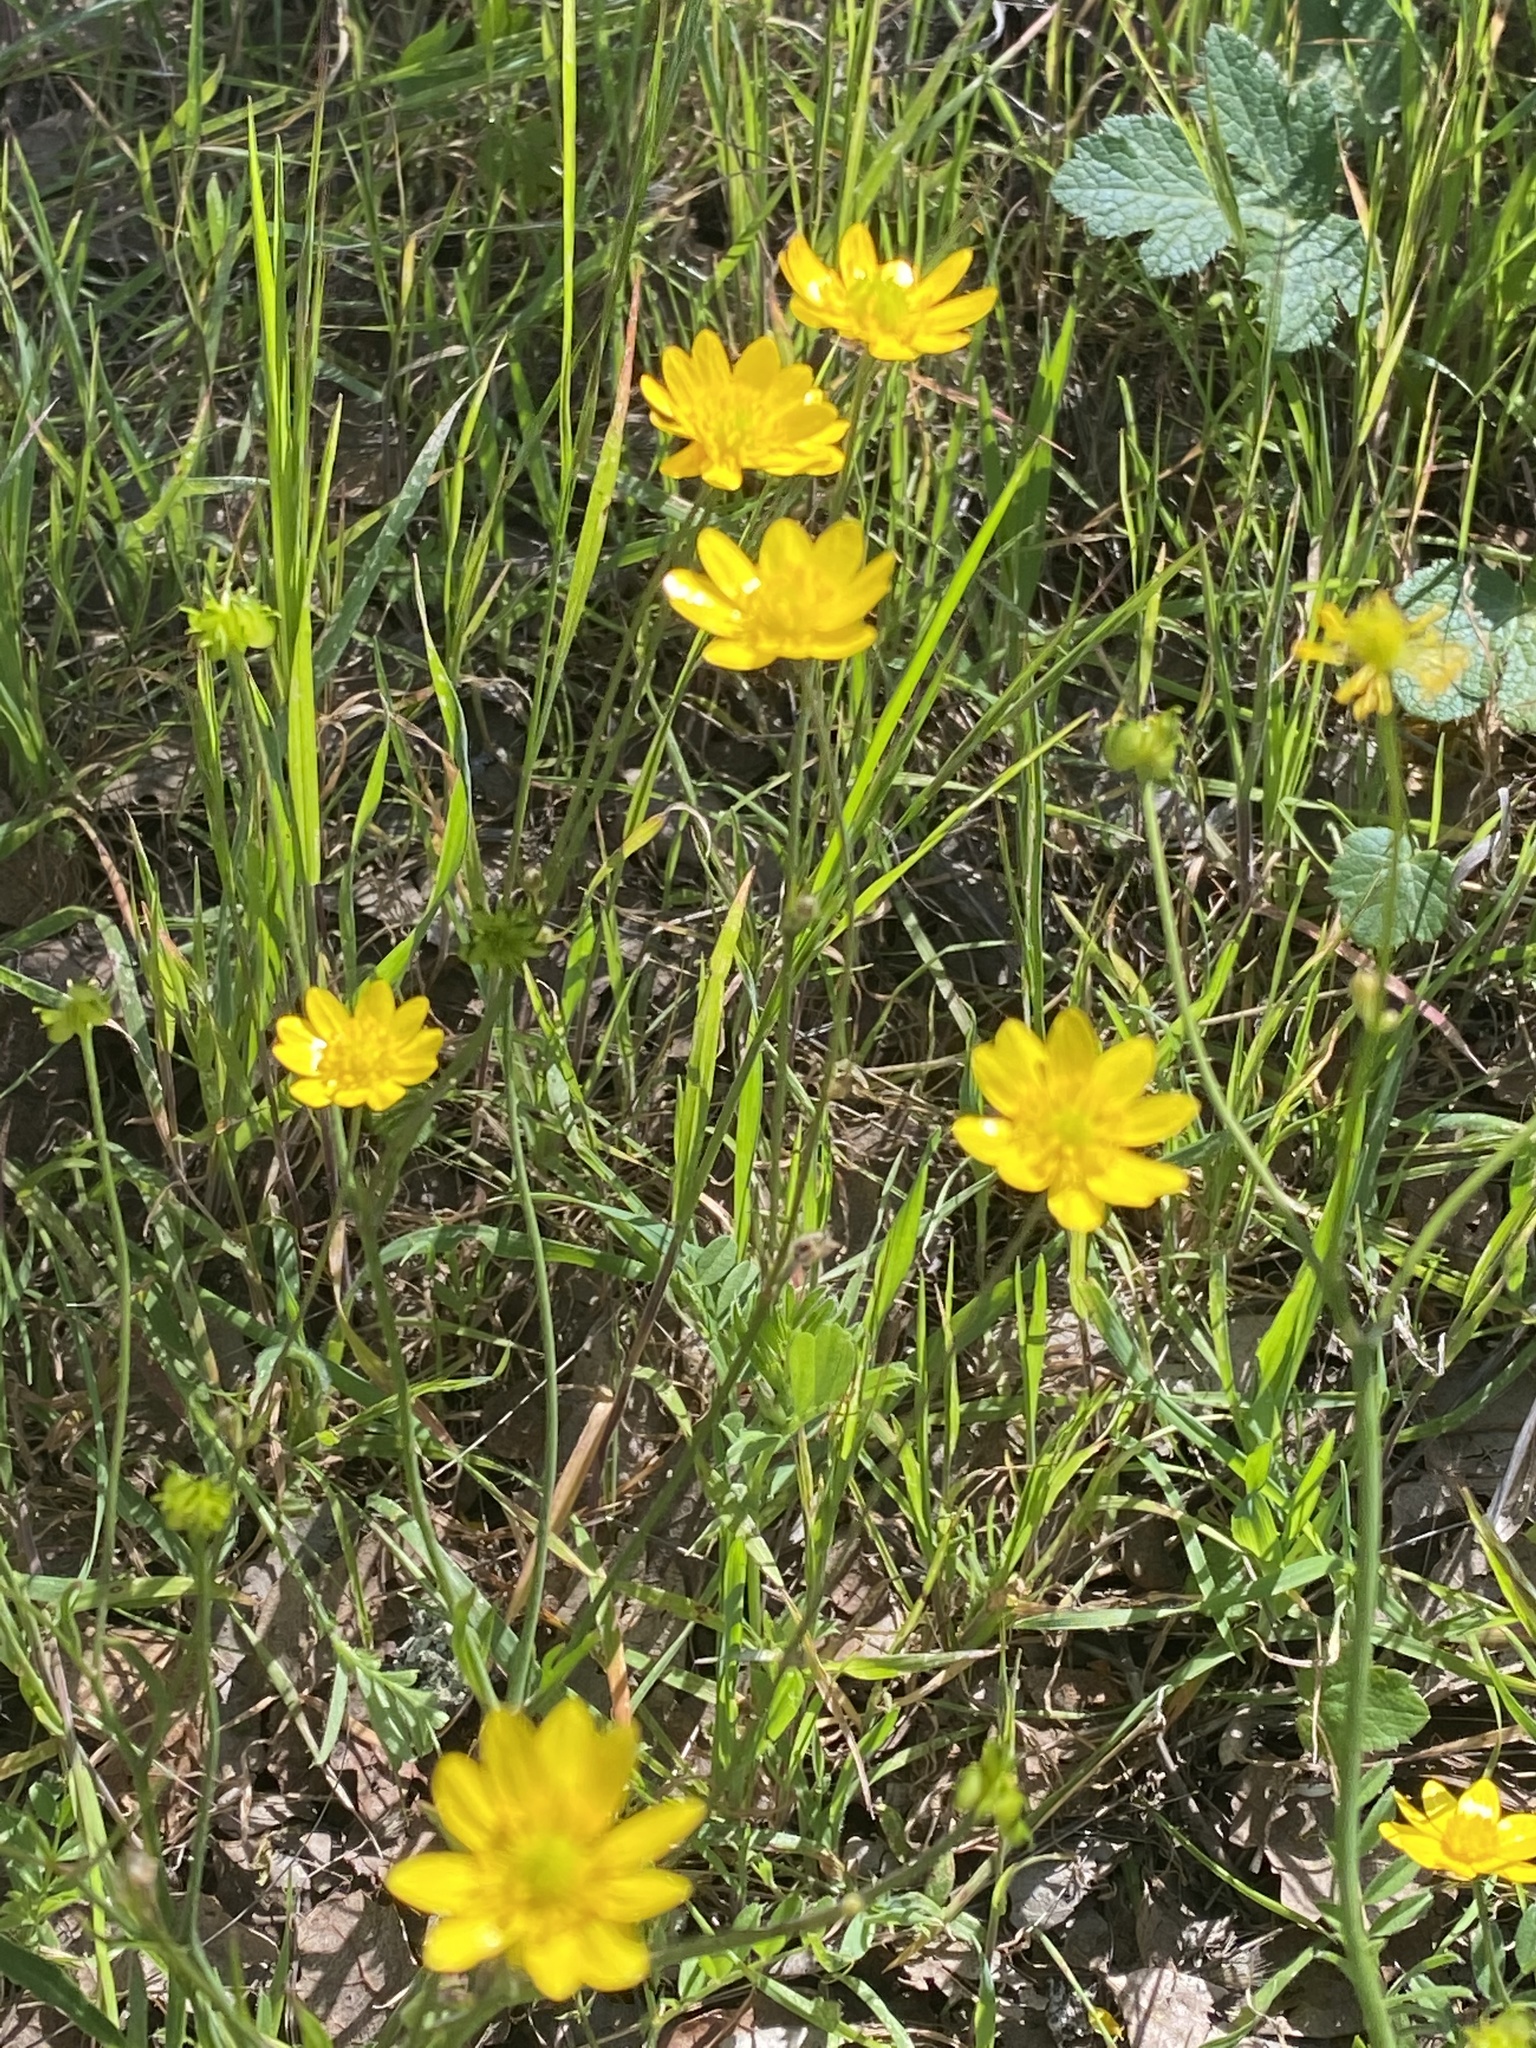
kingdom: Plantae
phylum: Tracheophyta
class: Magnoliopsida
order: Ranunculales
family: Ranunculaceae
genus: Ranunculus
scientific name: Ranunculus californicus
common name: California buttercup
